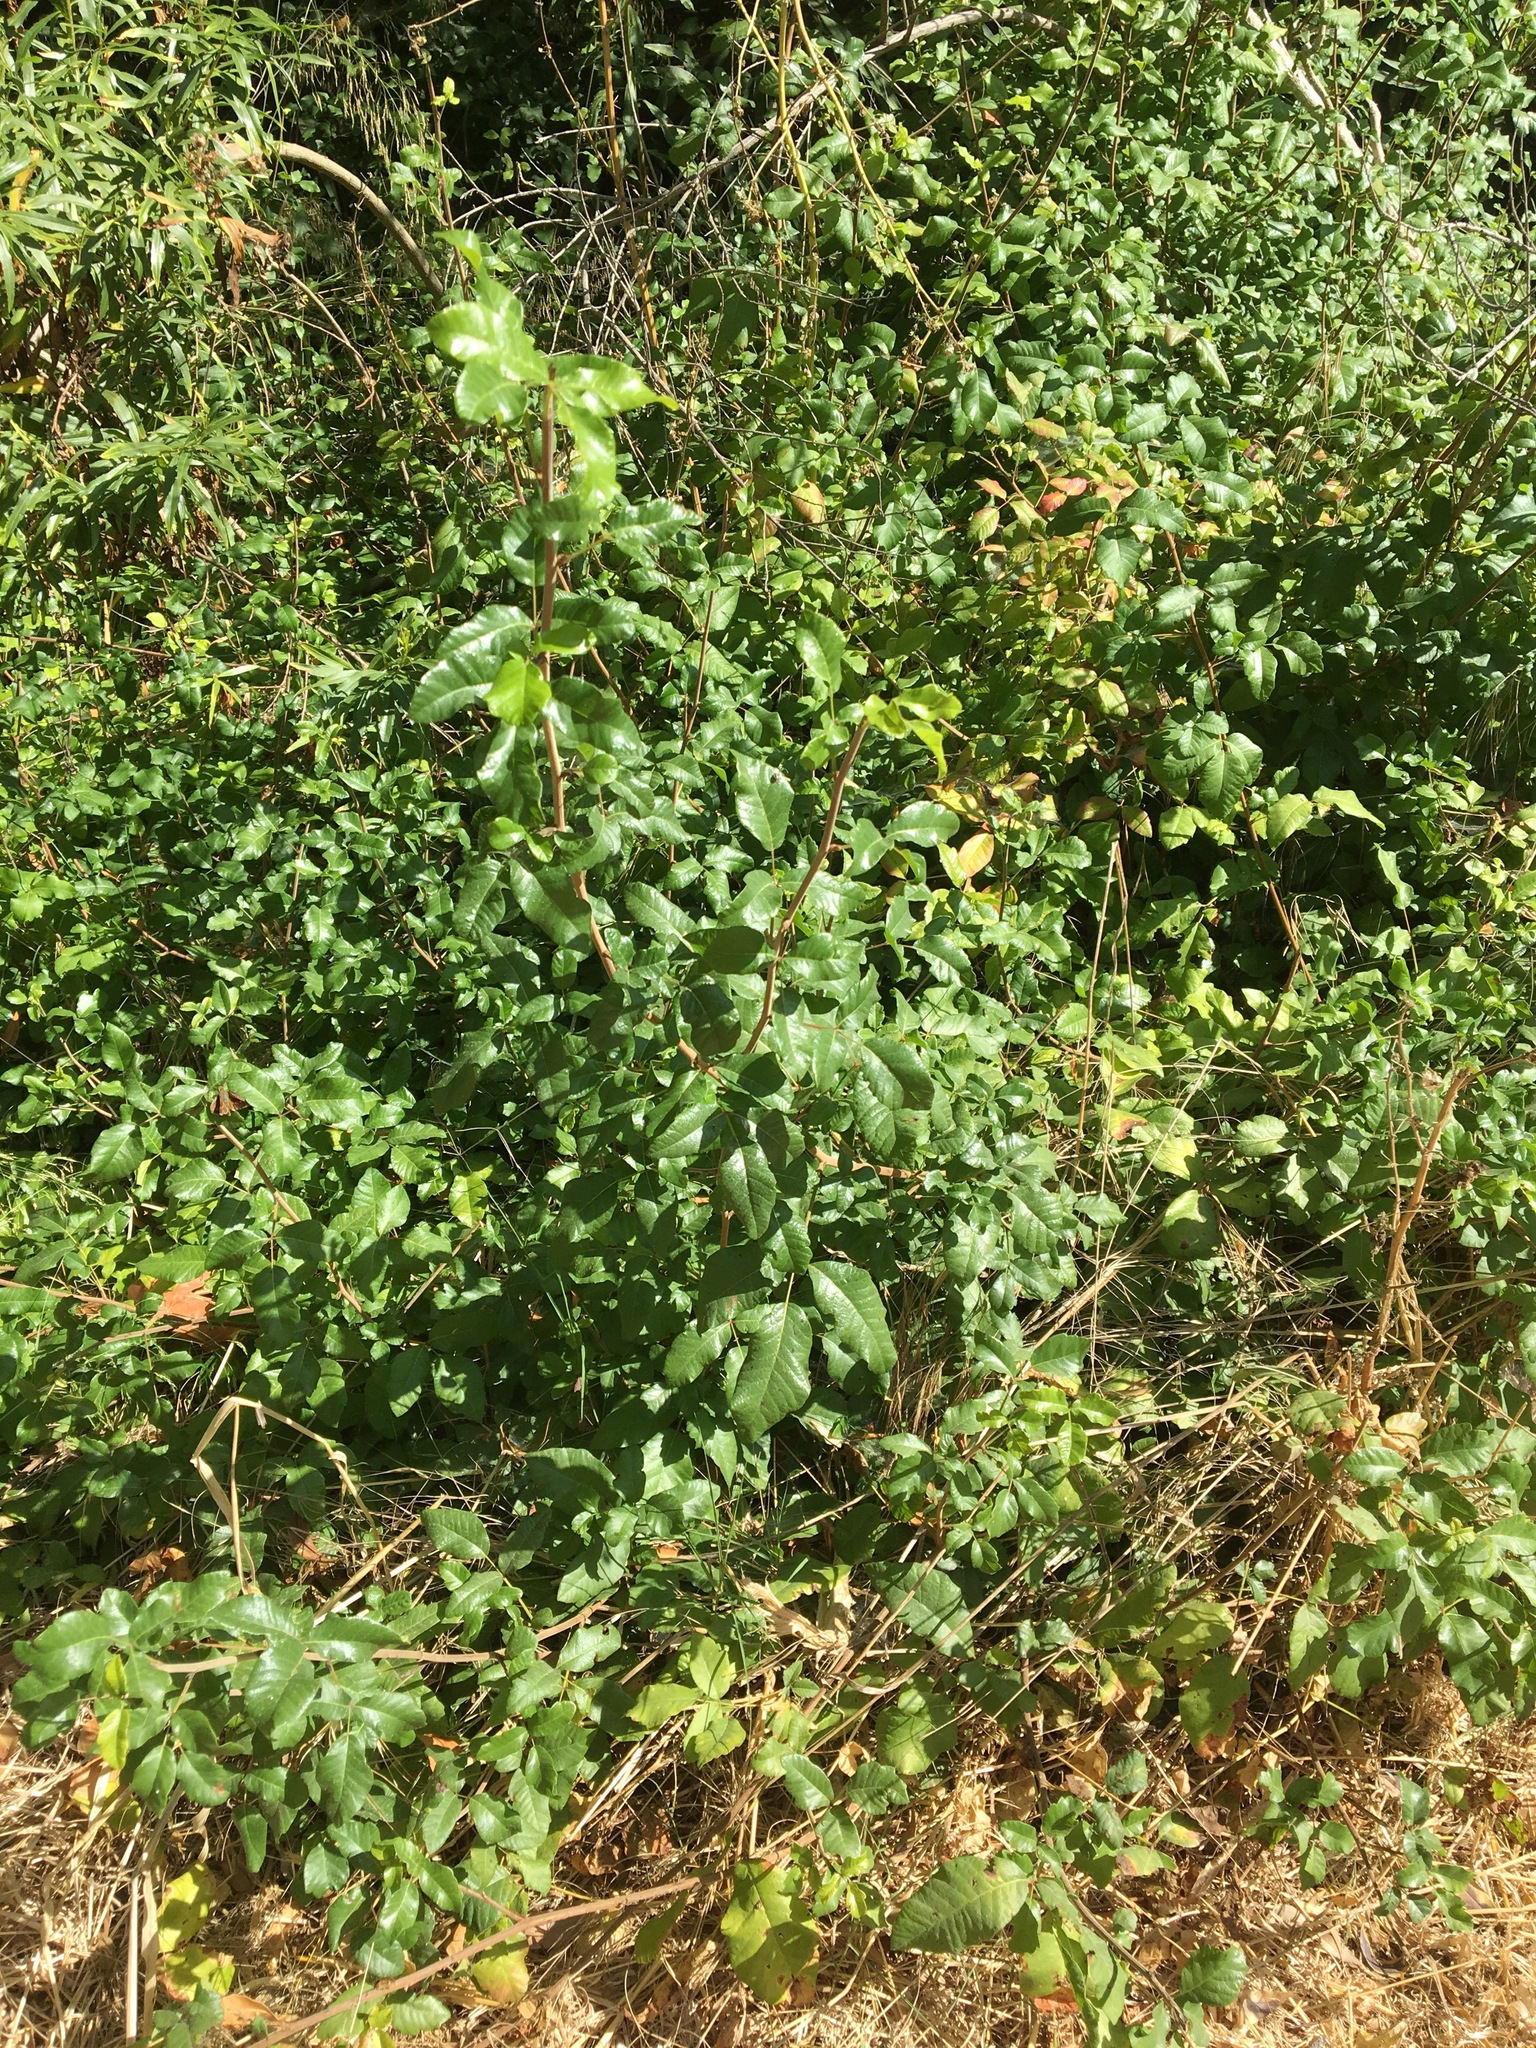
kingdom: Plantae
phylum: Tracheophyta
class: Magnoliopsida
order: Sapindales
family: Anacardiaceae
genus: Toxicodendron
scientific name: Toxicodendron diversilobum
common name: Pacific poison-oak
